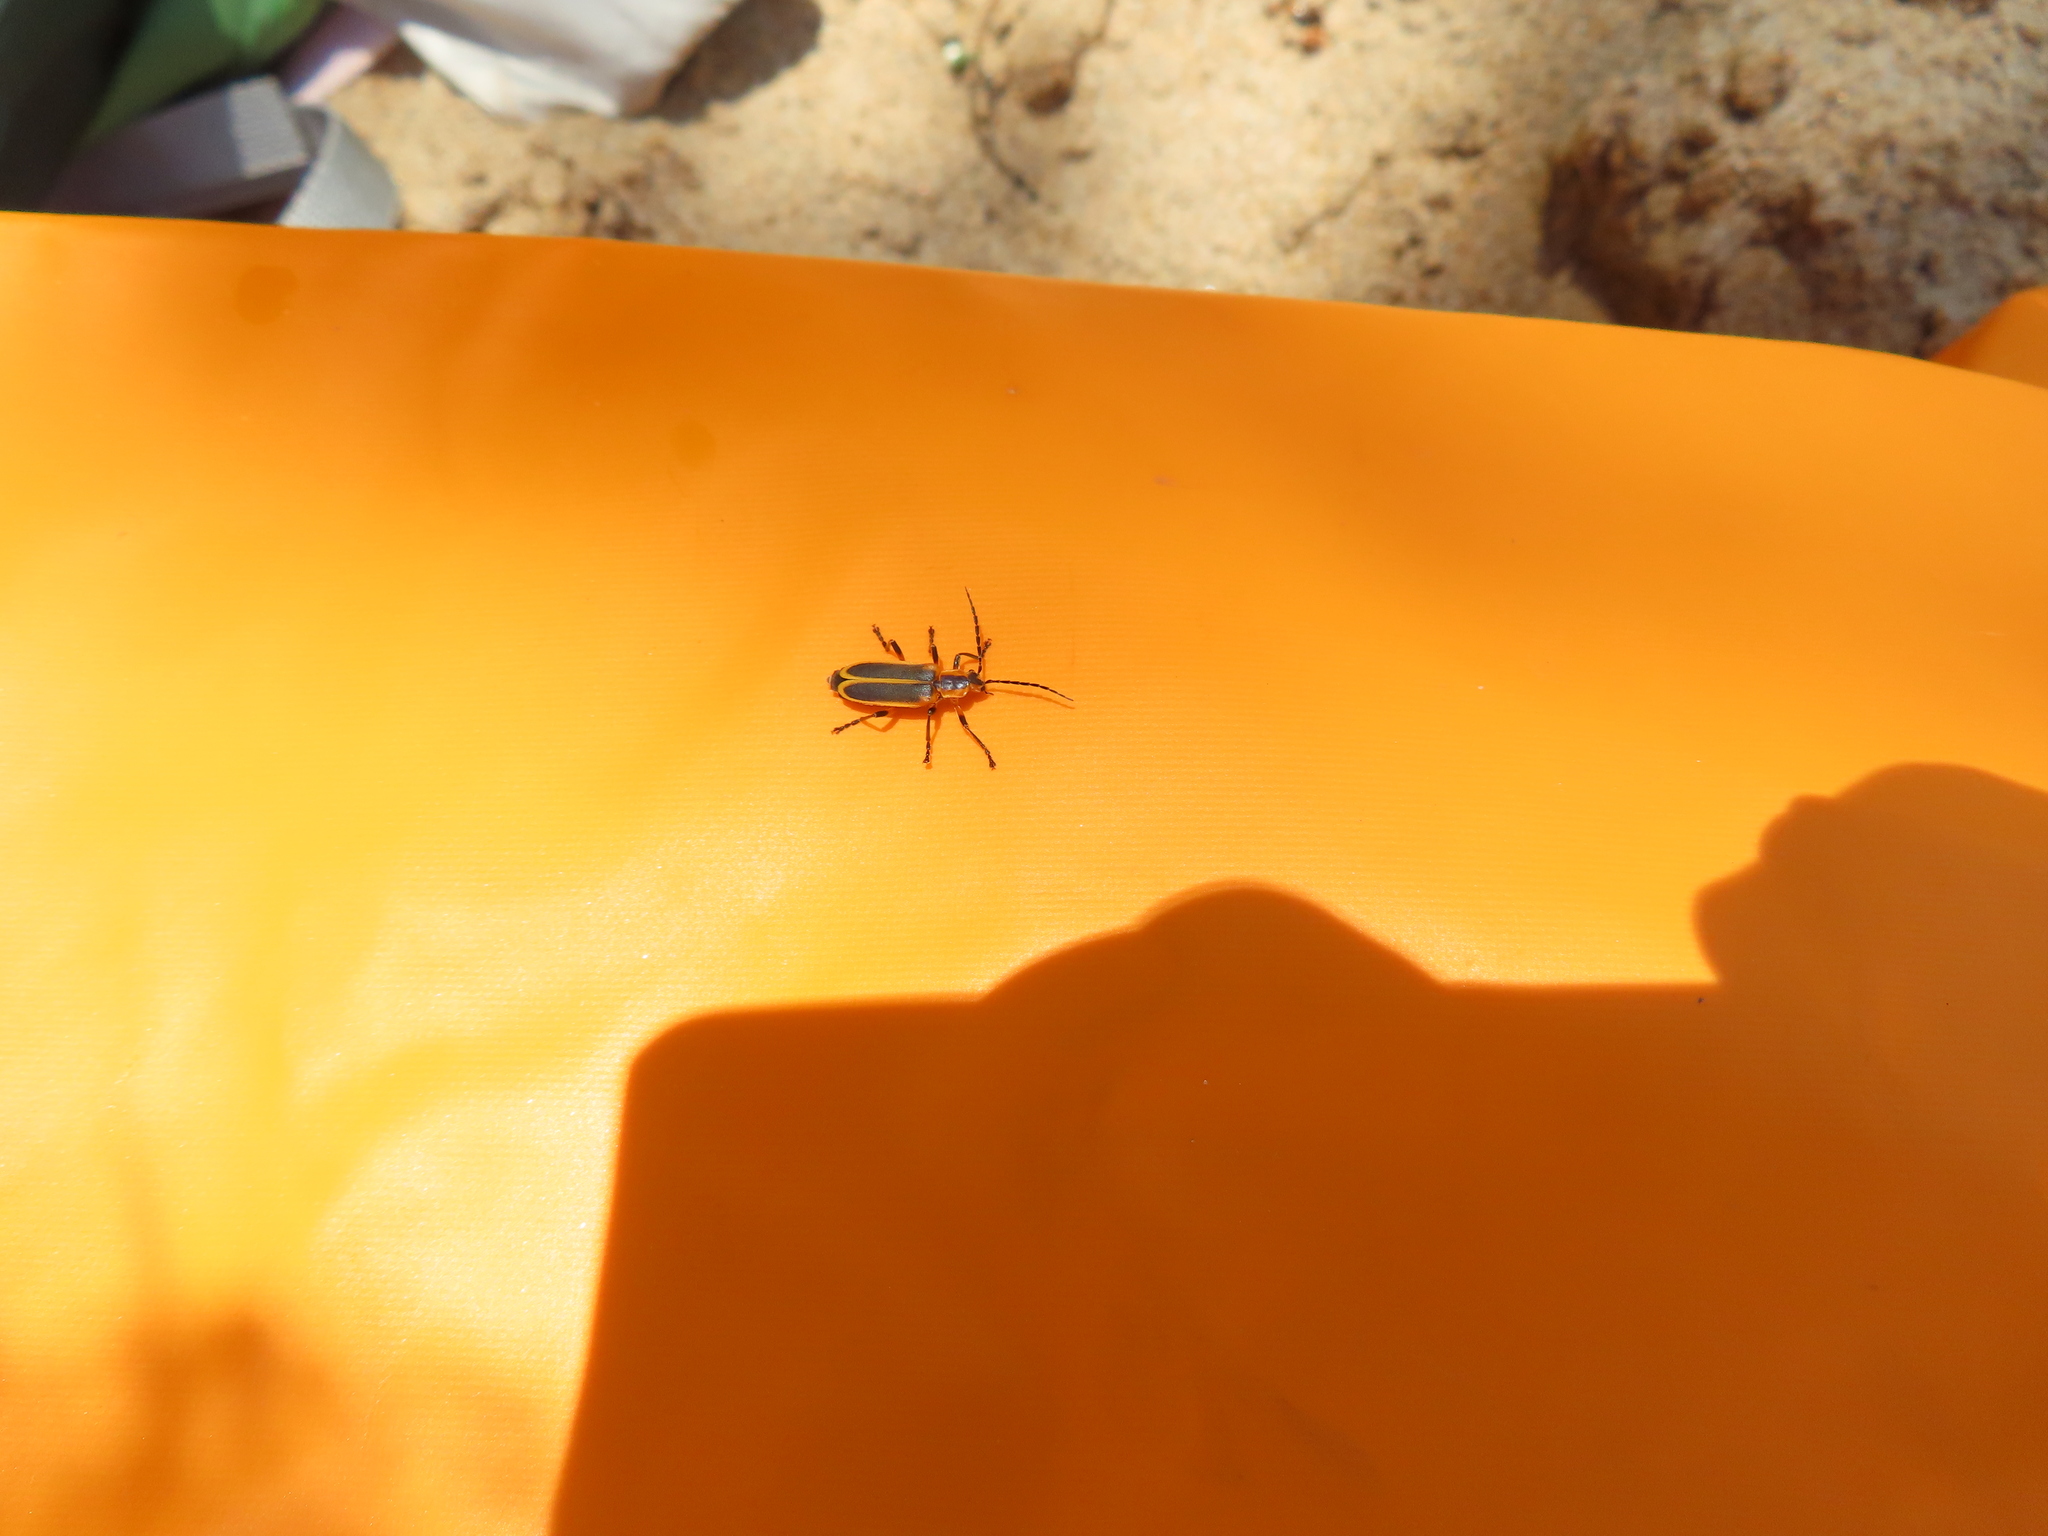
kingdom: Animalia
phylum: Arthropoda
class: Insecta
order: Coleoptera
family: Cantharidae
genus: Chauliognathus
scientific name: Chauliognathus marginatus
